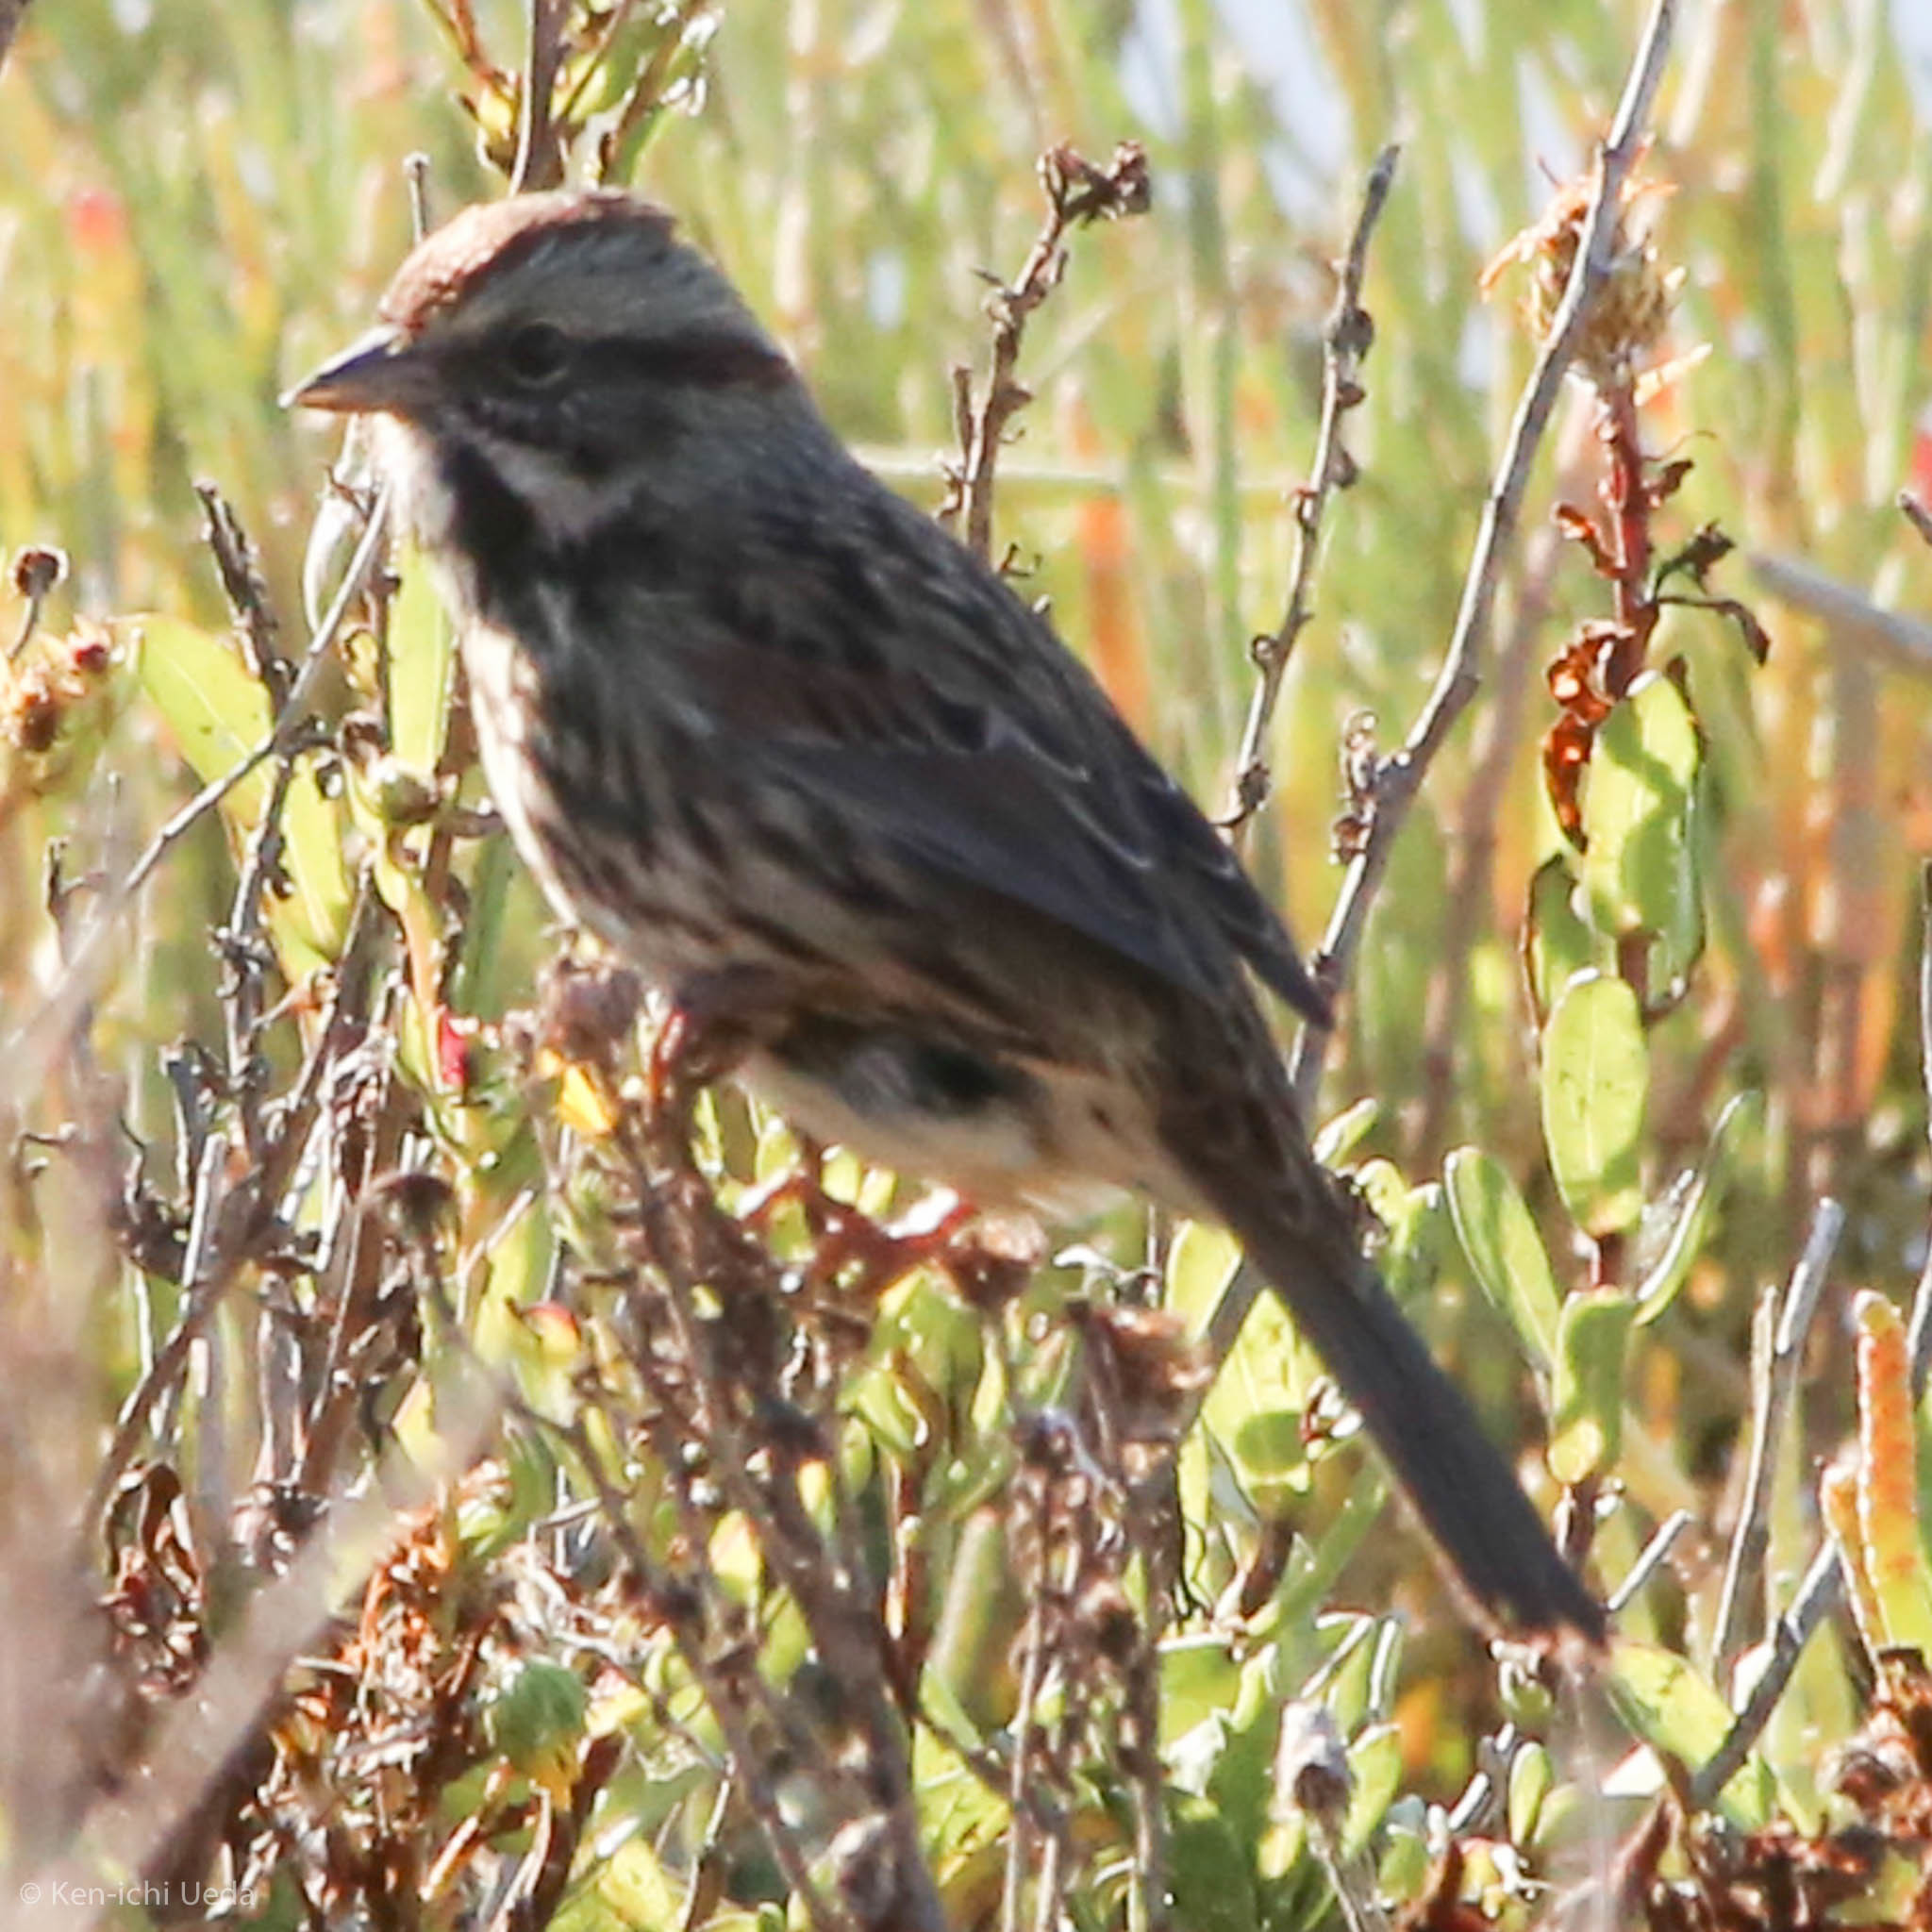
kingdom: Animalia
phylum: Chordata
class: Aves
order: Passeriformes
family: Passerellidae
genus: Melospiza
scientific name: Melospiza melodia
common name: Song sparrow
